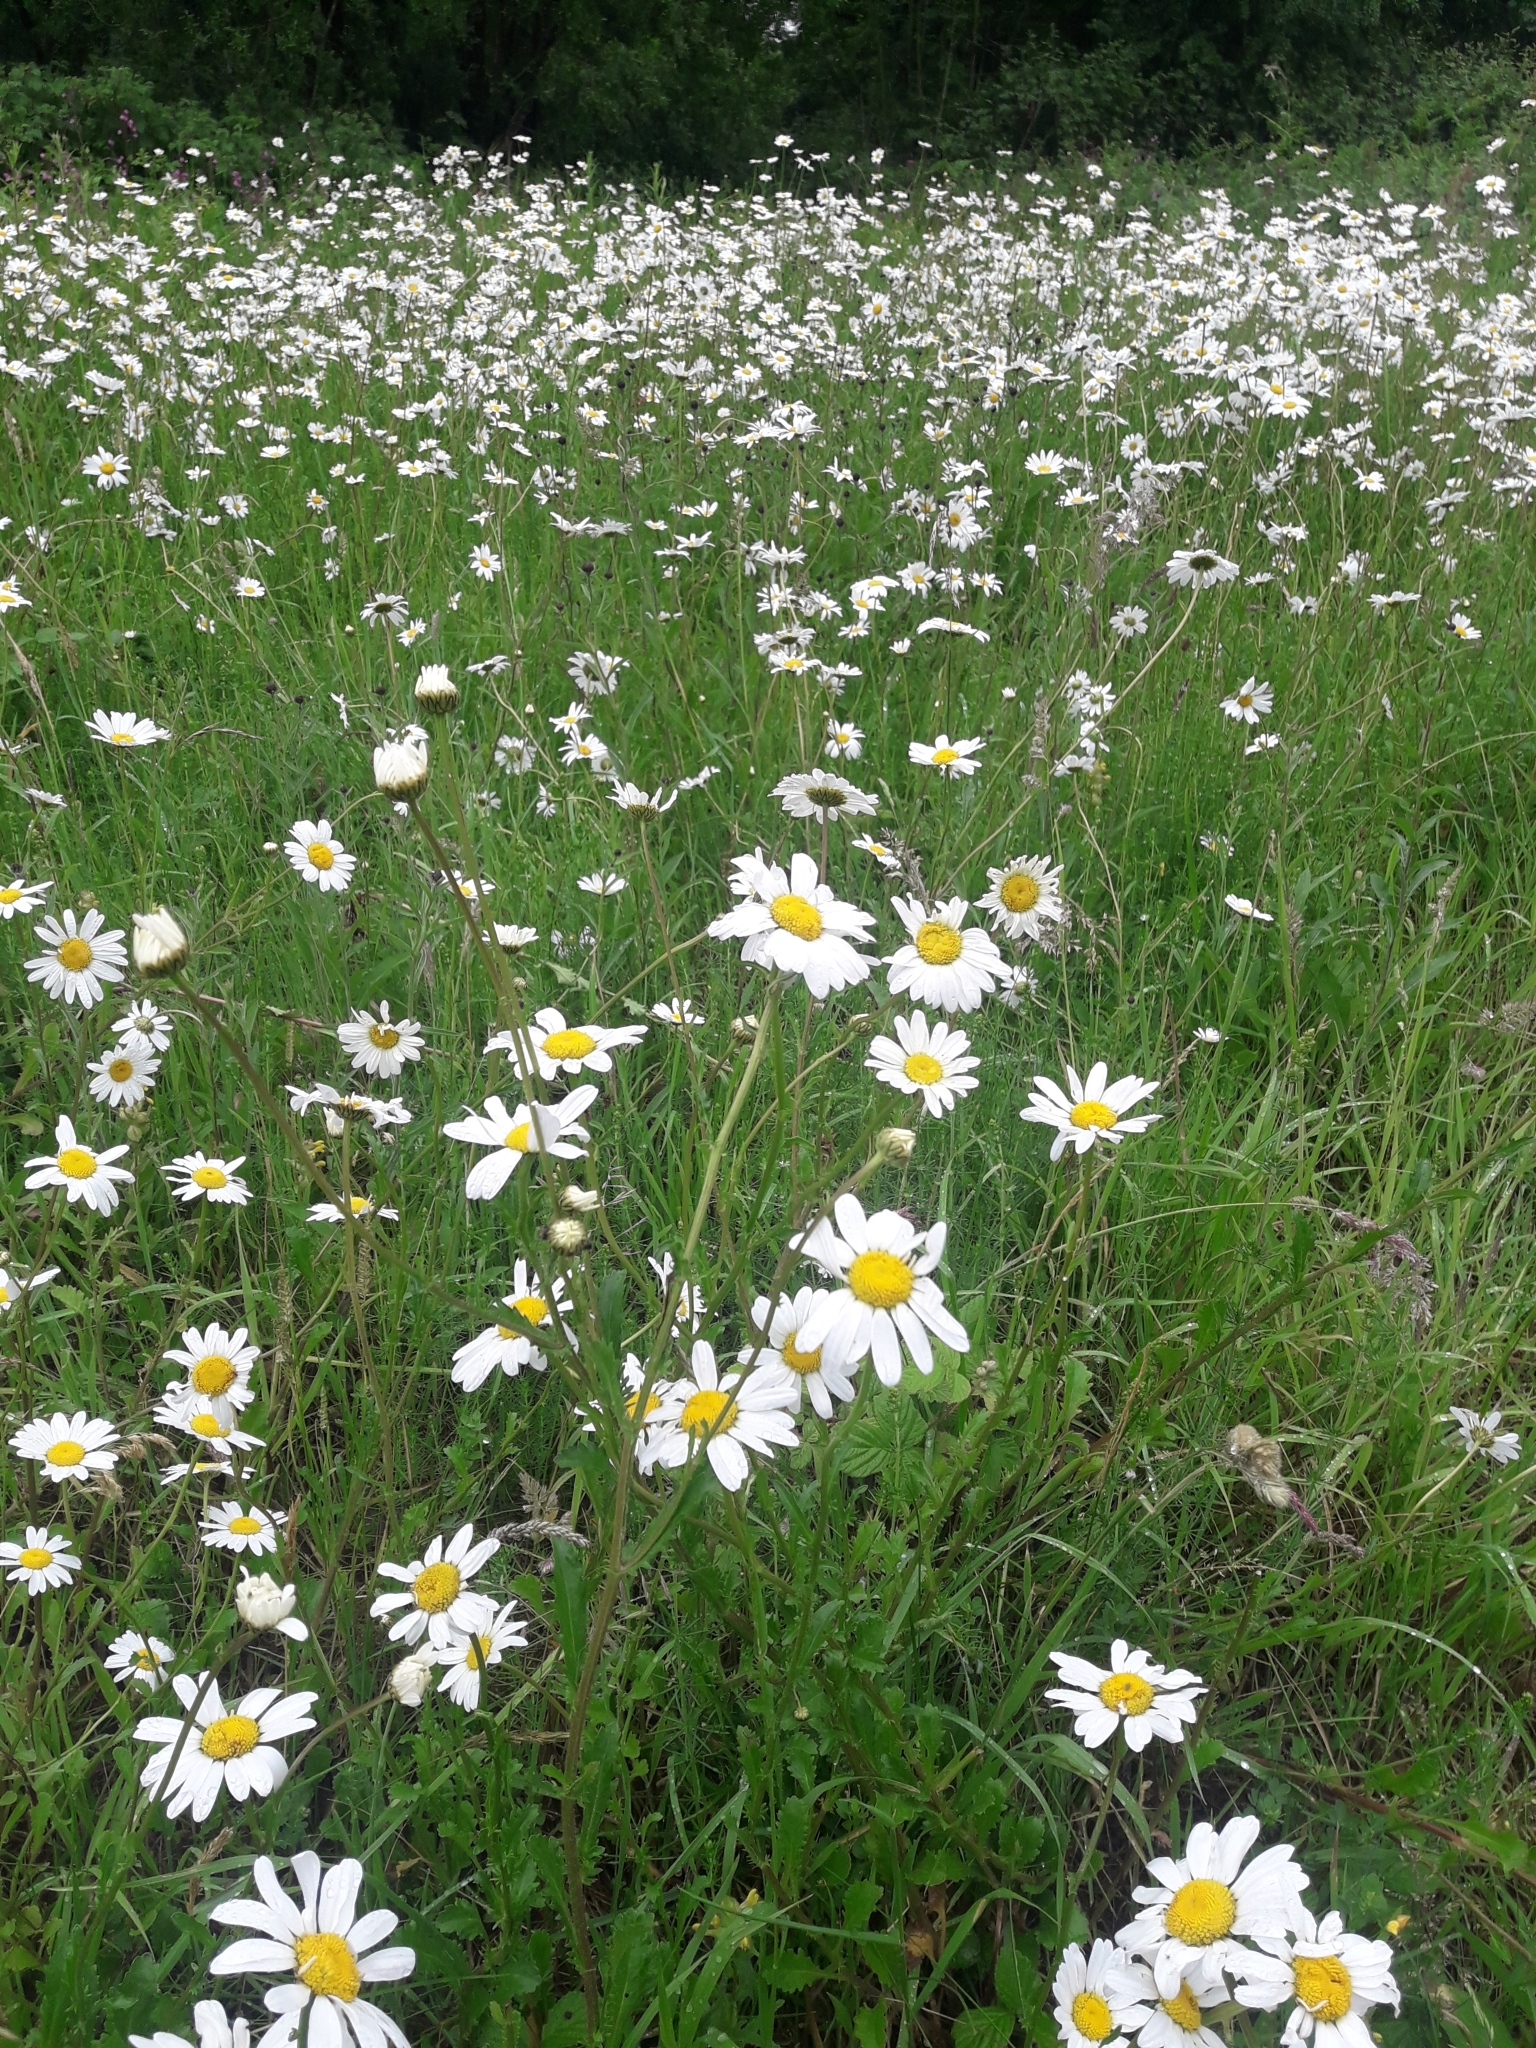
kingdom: Plantae
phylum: Tracheophyta
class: Magnoliopsida
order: Asterales
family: Asteraceae
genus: Leucanthemum
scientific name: Leucanthemum vulgare
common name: Oxeye daisy
